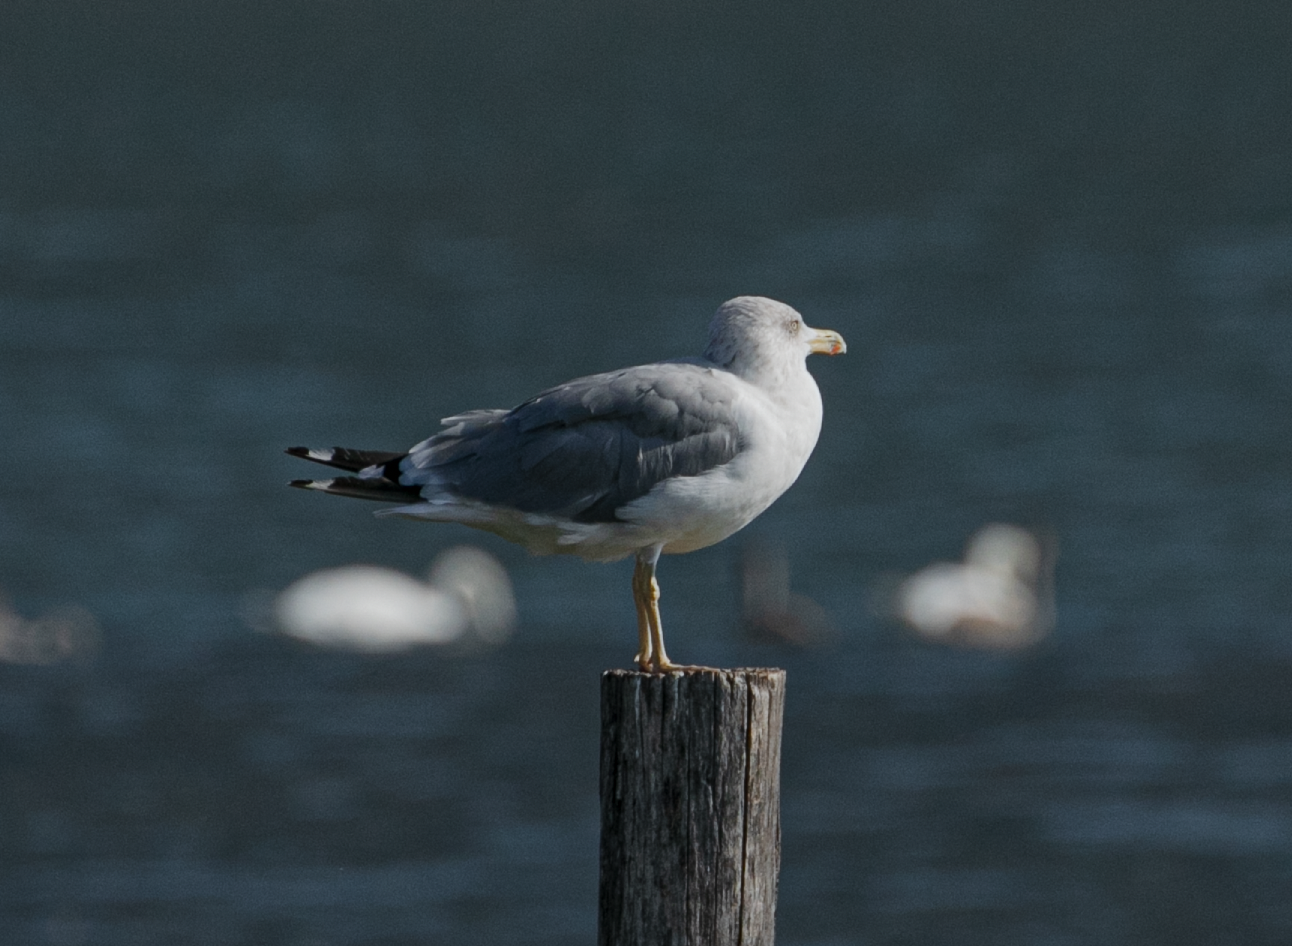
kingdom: Animalia
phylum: Chordata
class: Aves
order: Charadriiformes
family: Laridae
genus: Larus
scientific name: Larus michahellis
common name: Yellow-legged gull
